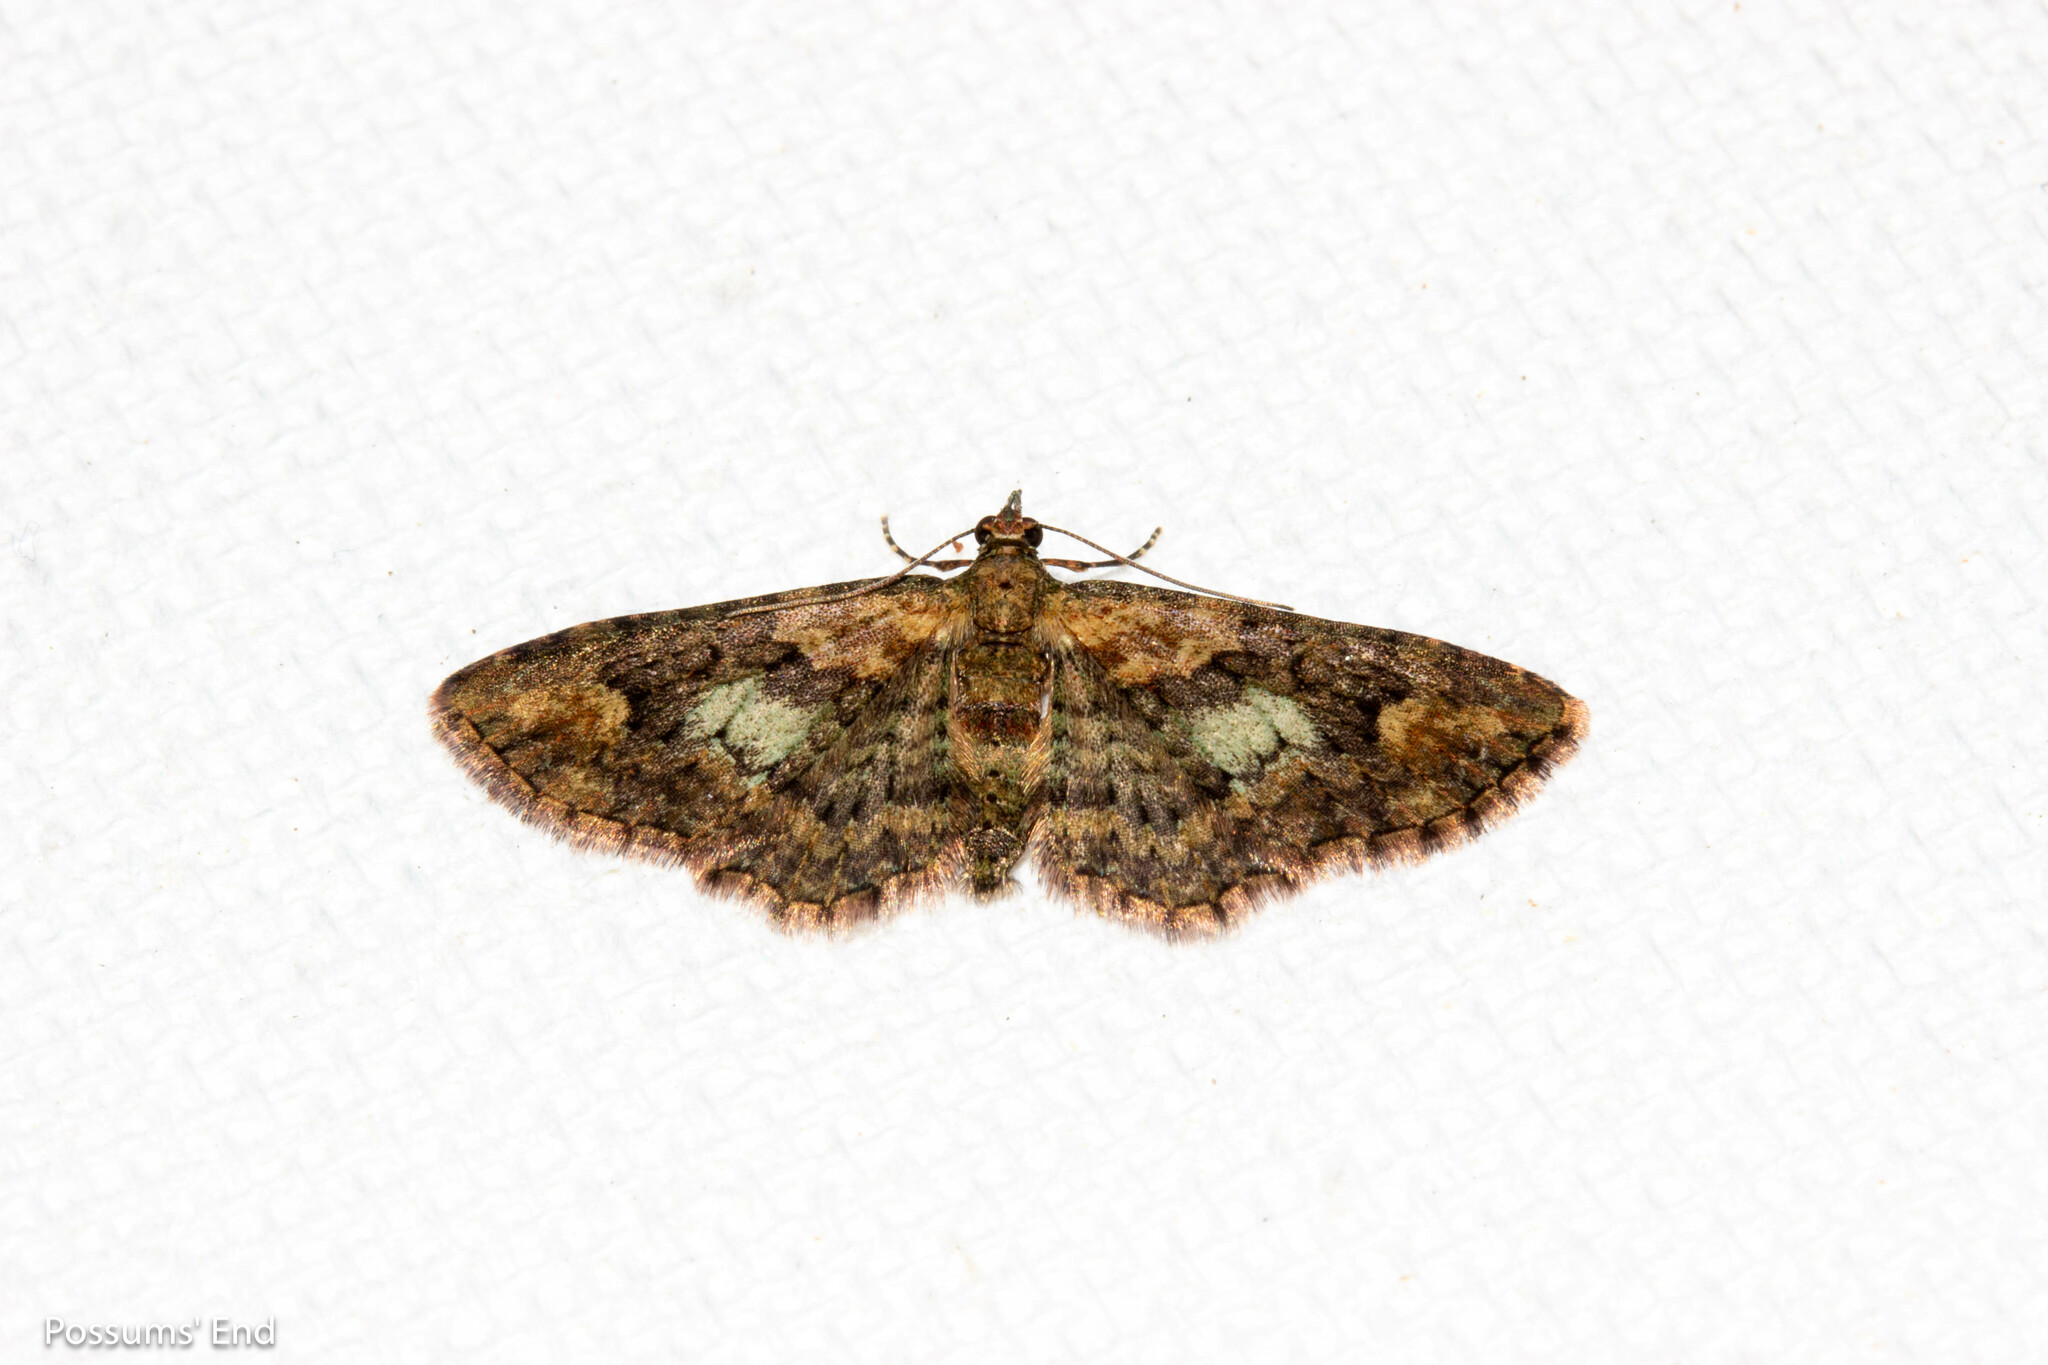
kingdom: Animalia
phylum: Arthropoda
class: Insecta
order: Lepidoptera
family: Geometridae
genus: Pasiphilodes
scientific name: Pasiphilodes testulata
